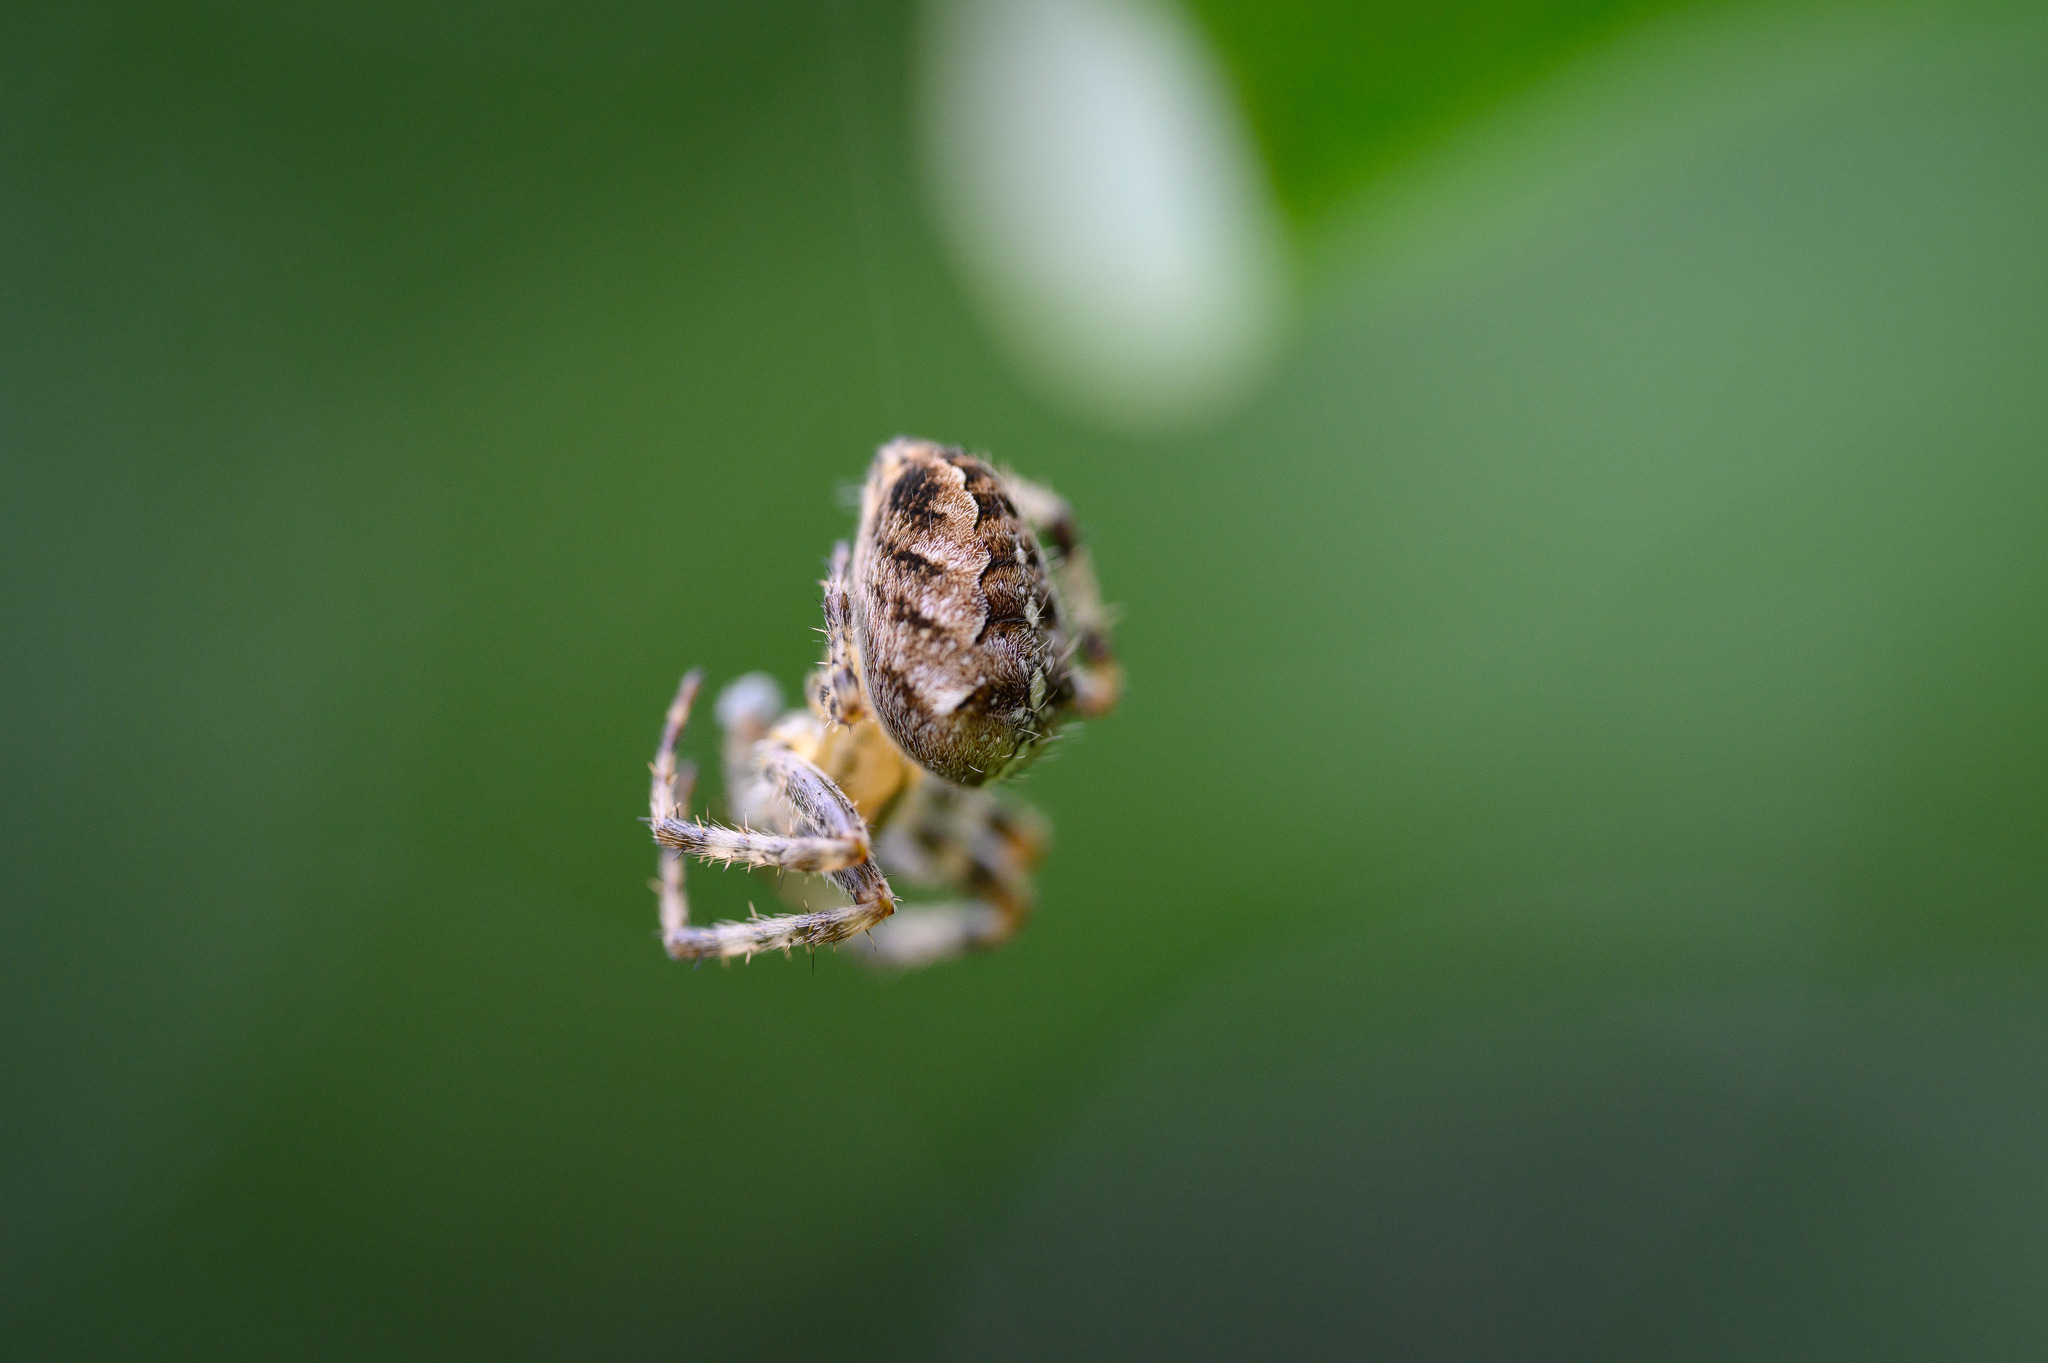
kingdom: Animalia
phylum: Arthropoda
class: Arachnida
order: Araneae
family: Araneidae
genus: Araneus
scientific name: Araneus diadematus
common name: Cross orbweaver
